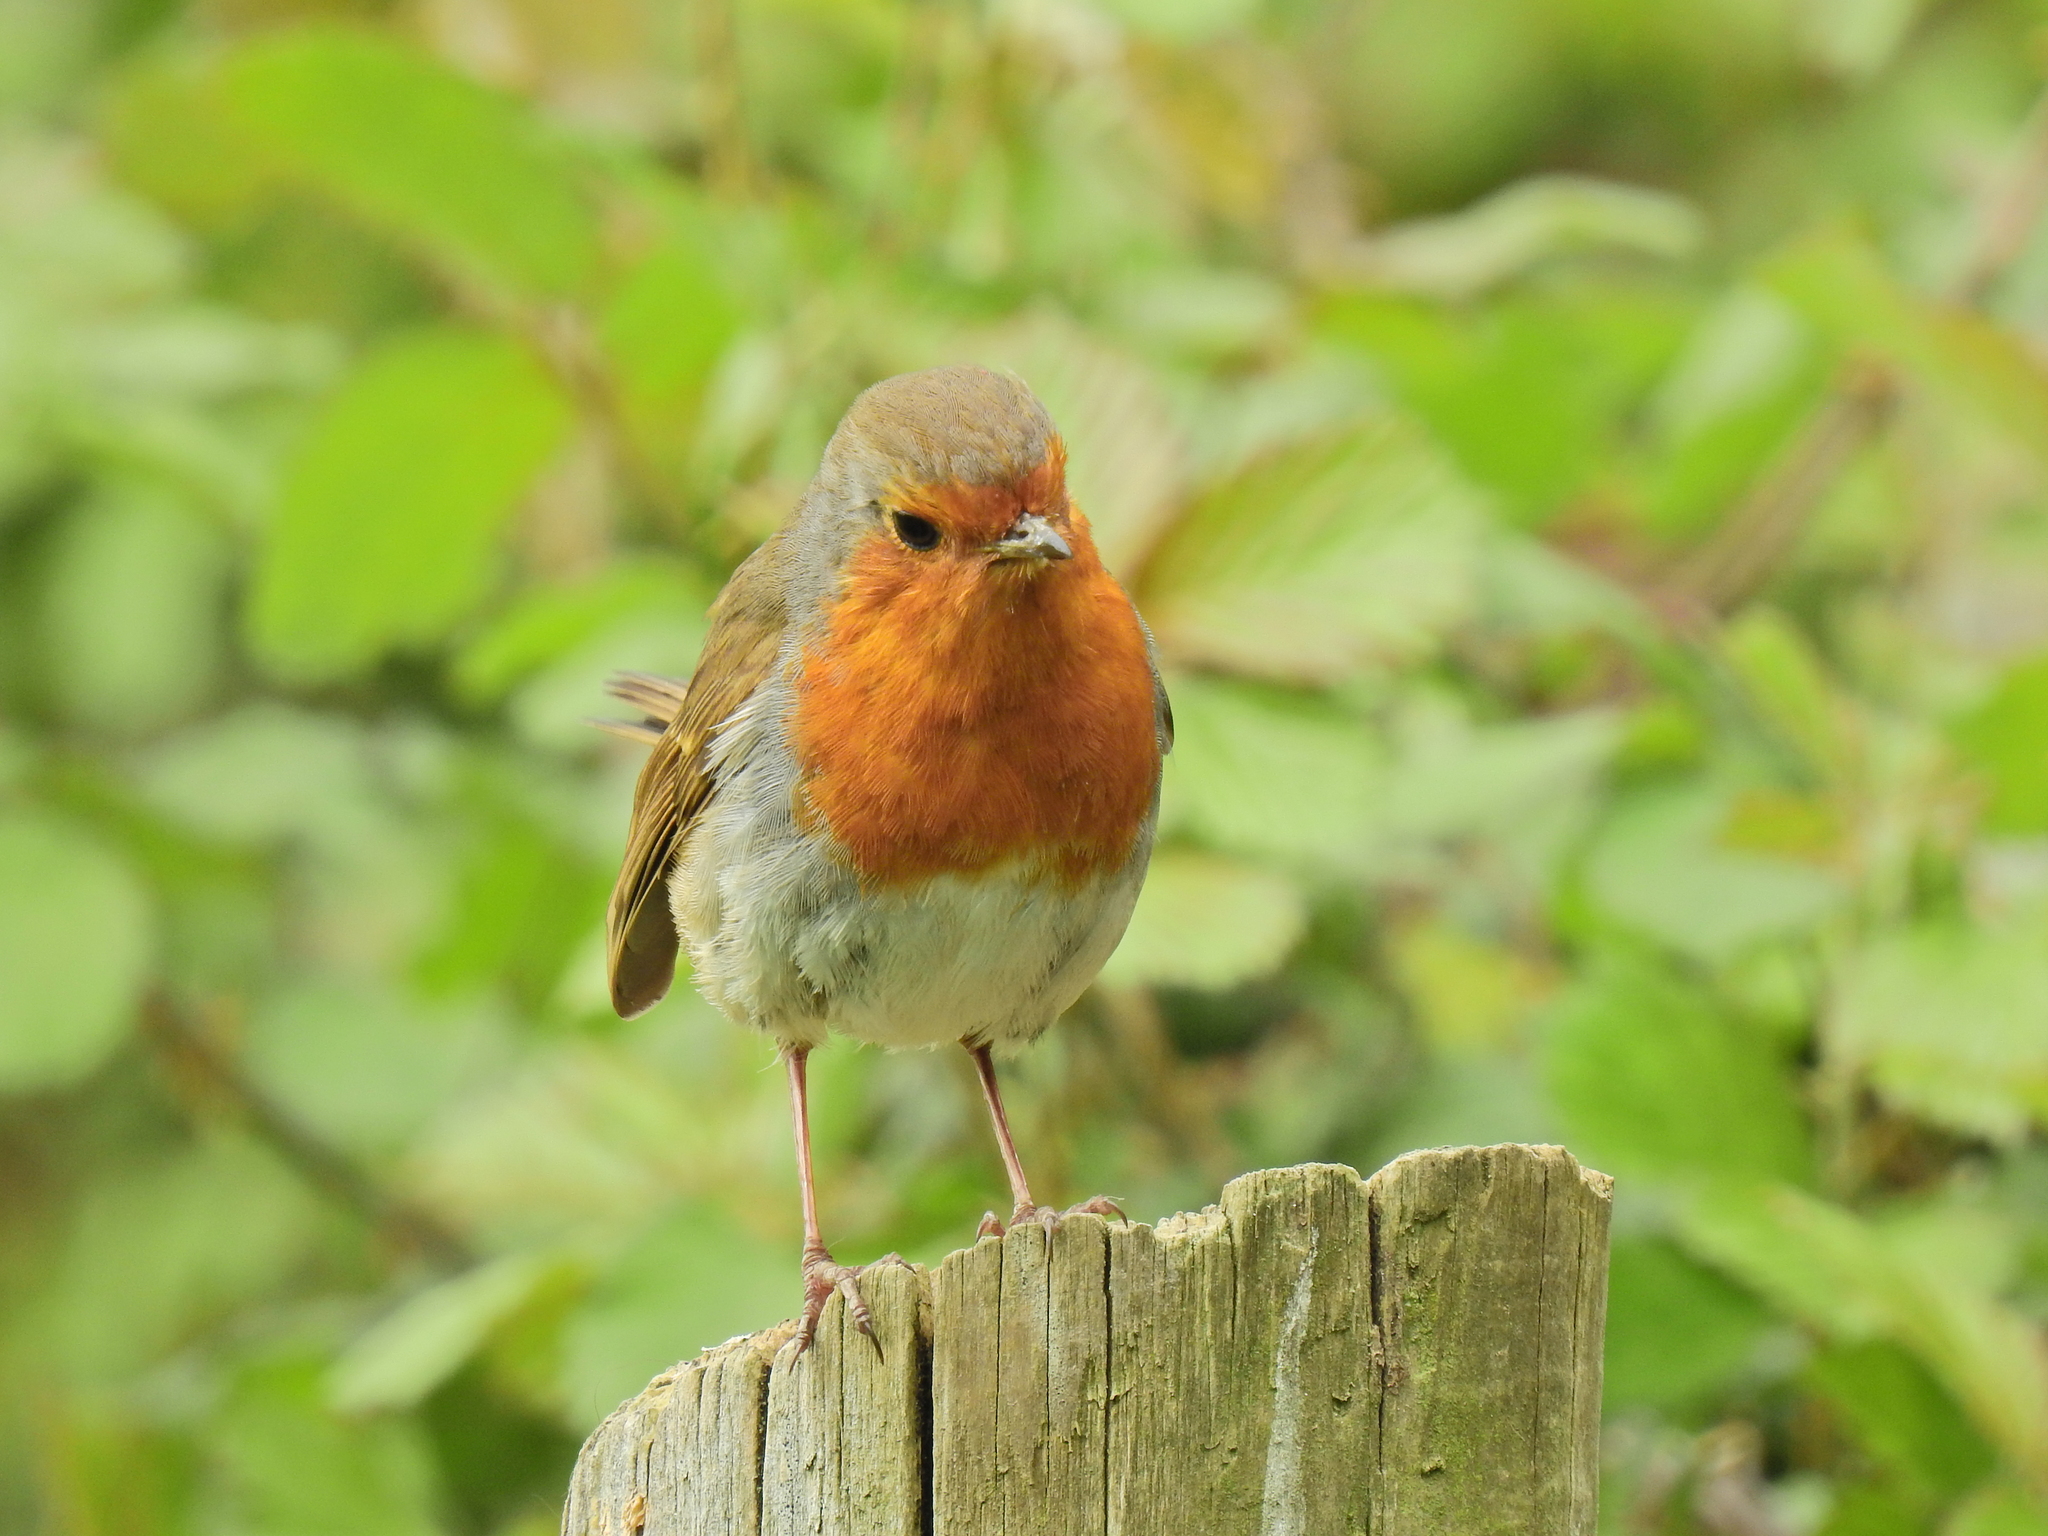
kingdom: Animalia
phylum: Chordata
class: Aves
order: Passeriformes
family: Muscicapidae
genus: Erithacus
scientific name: Erithacus rubecula
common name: European robin
